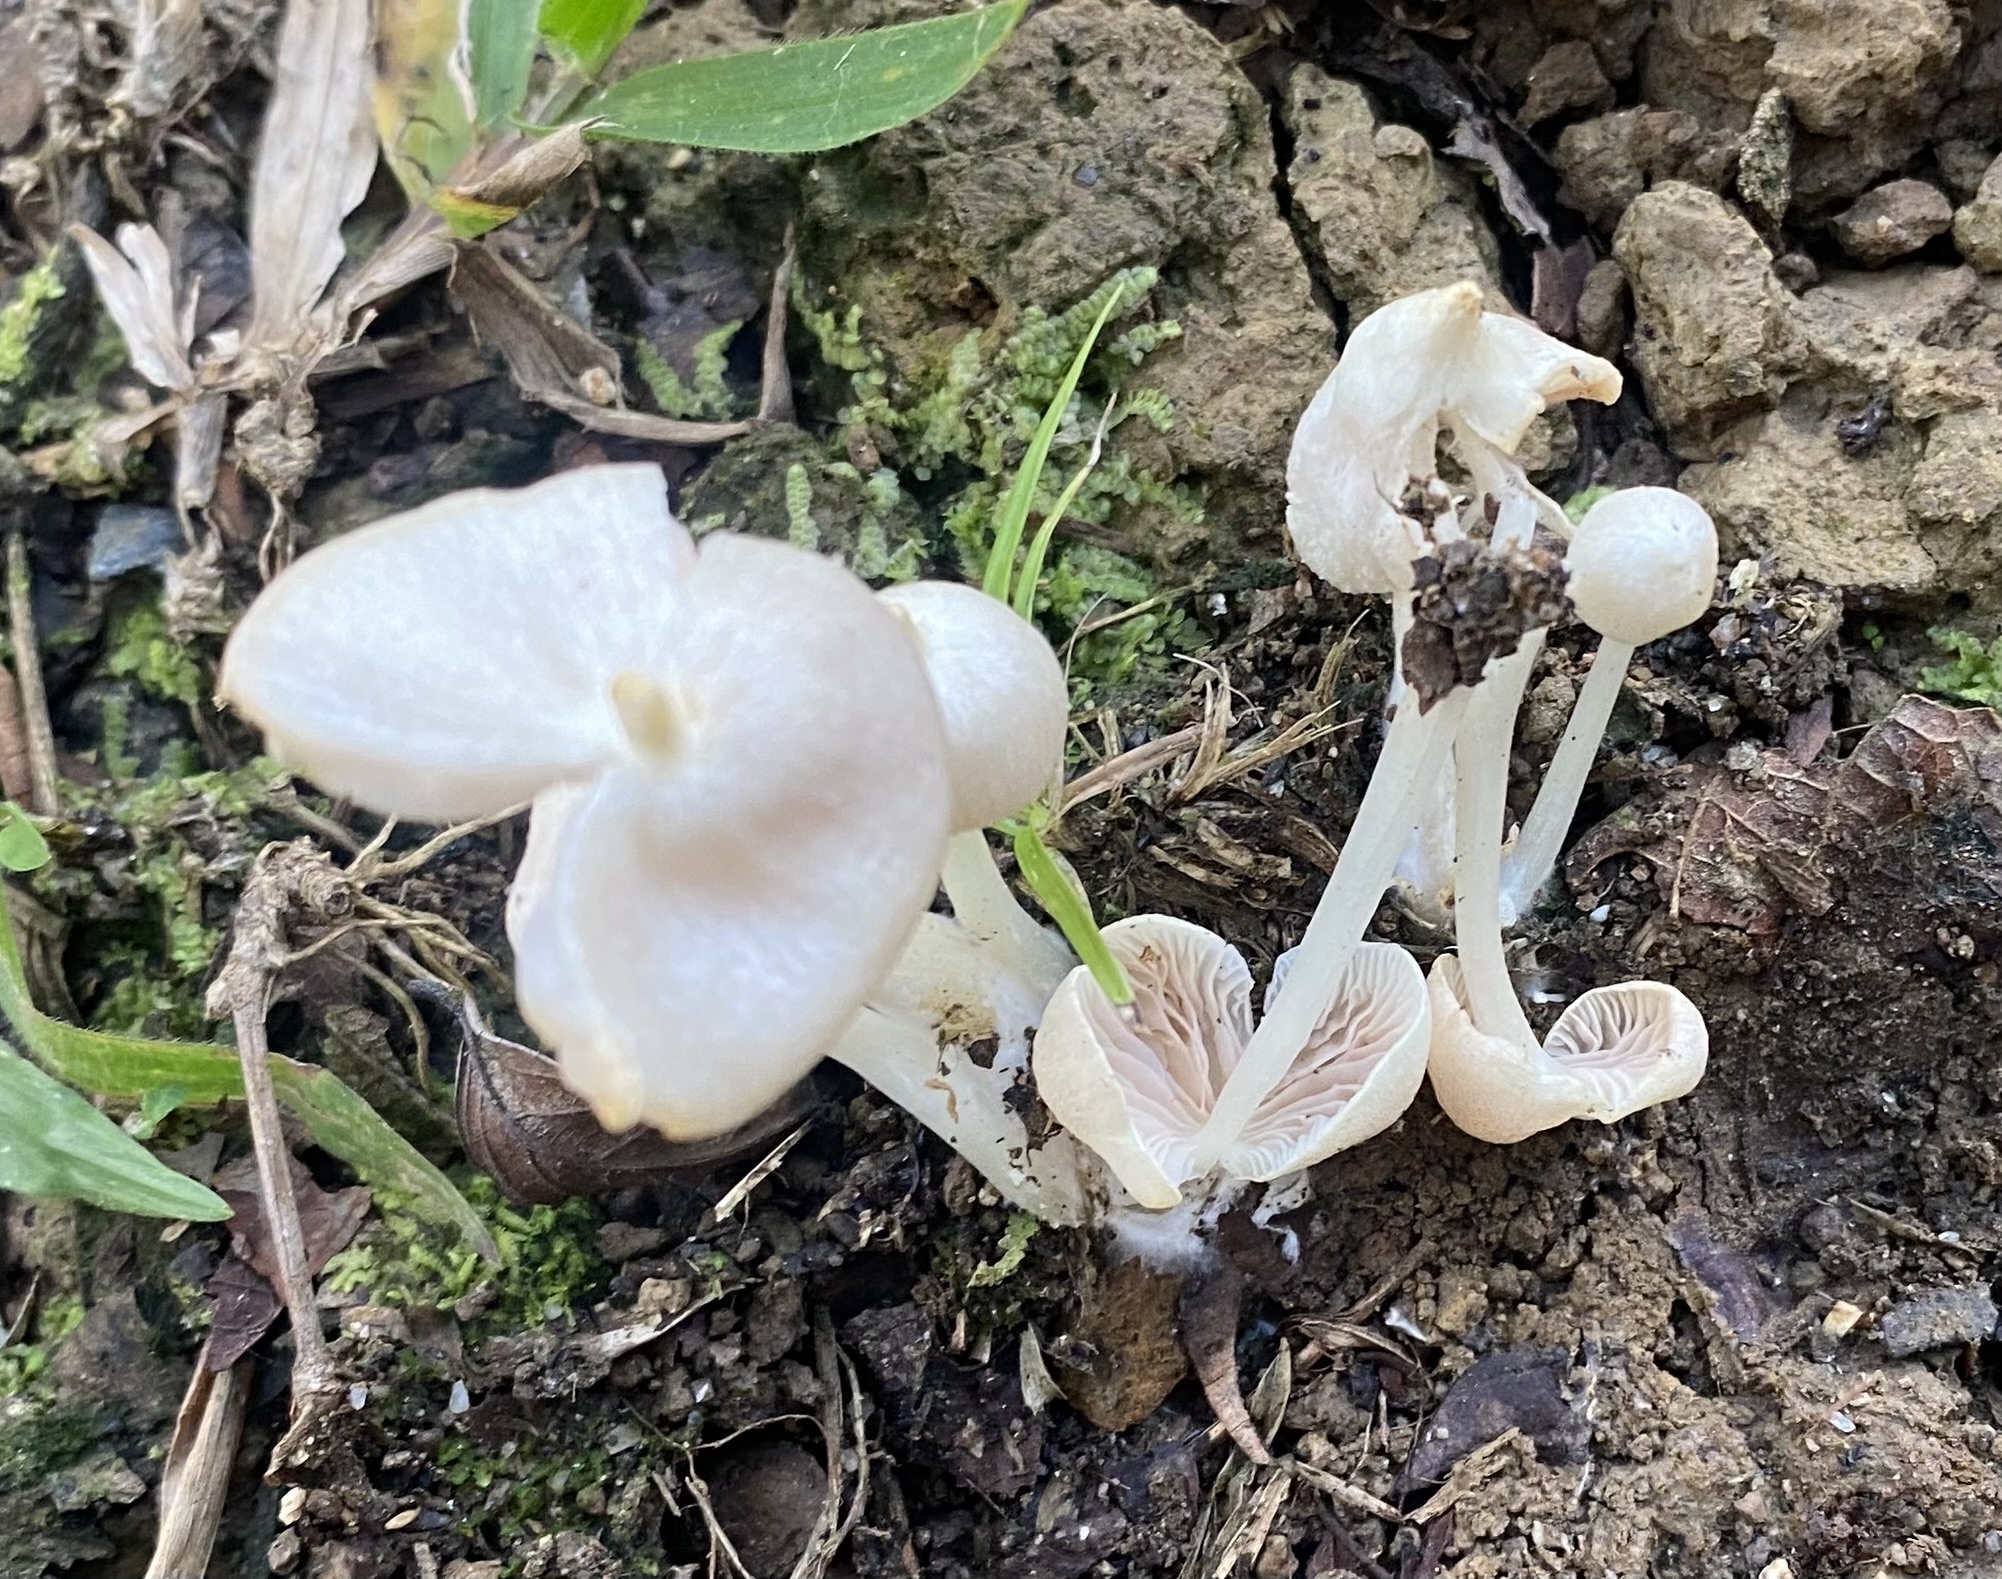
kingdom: Fungi
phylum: Basidiomycota
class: Agaricomycetes
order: Agaricales
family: Entolomataceae
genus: Entoloma
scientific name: Entoloma stylophorum
